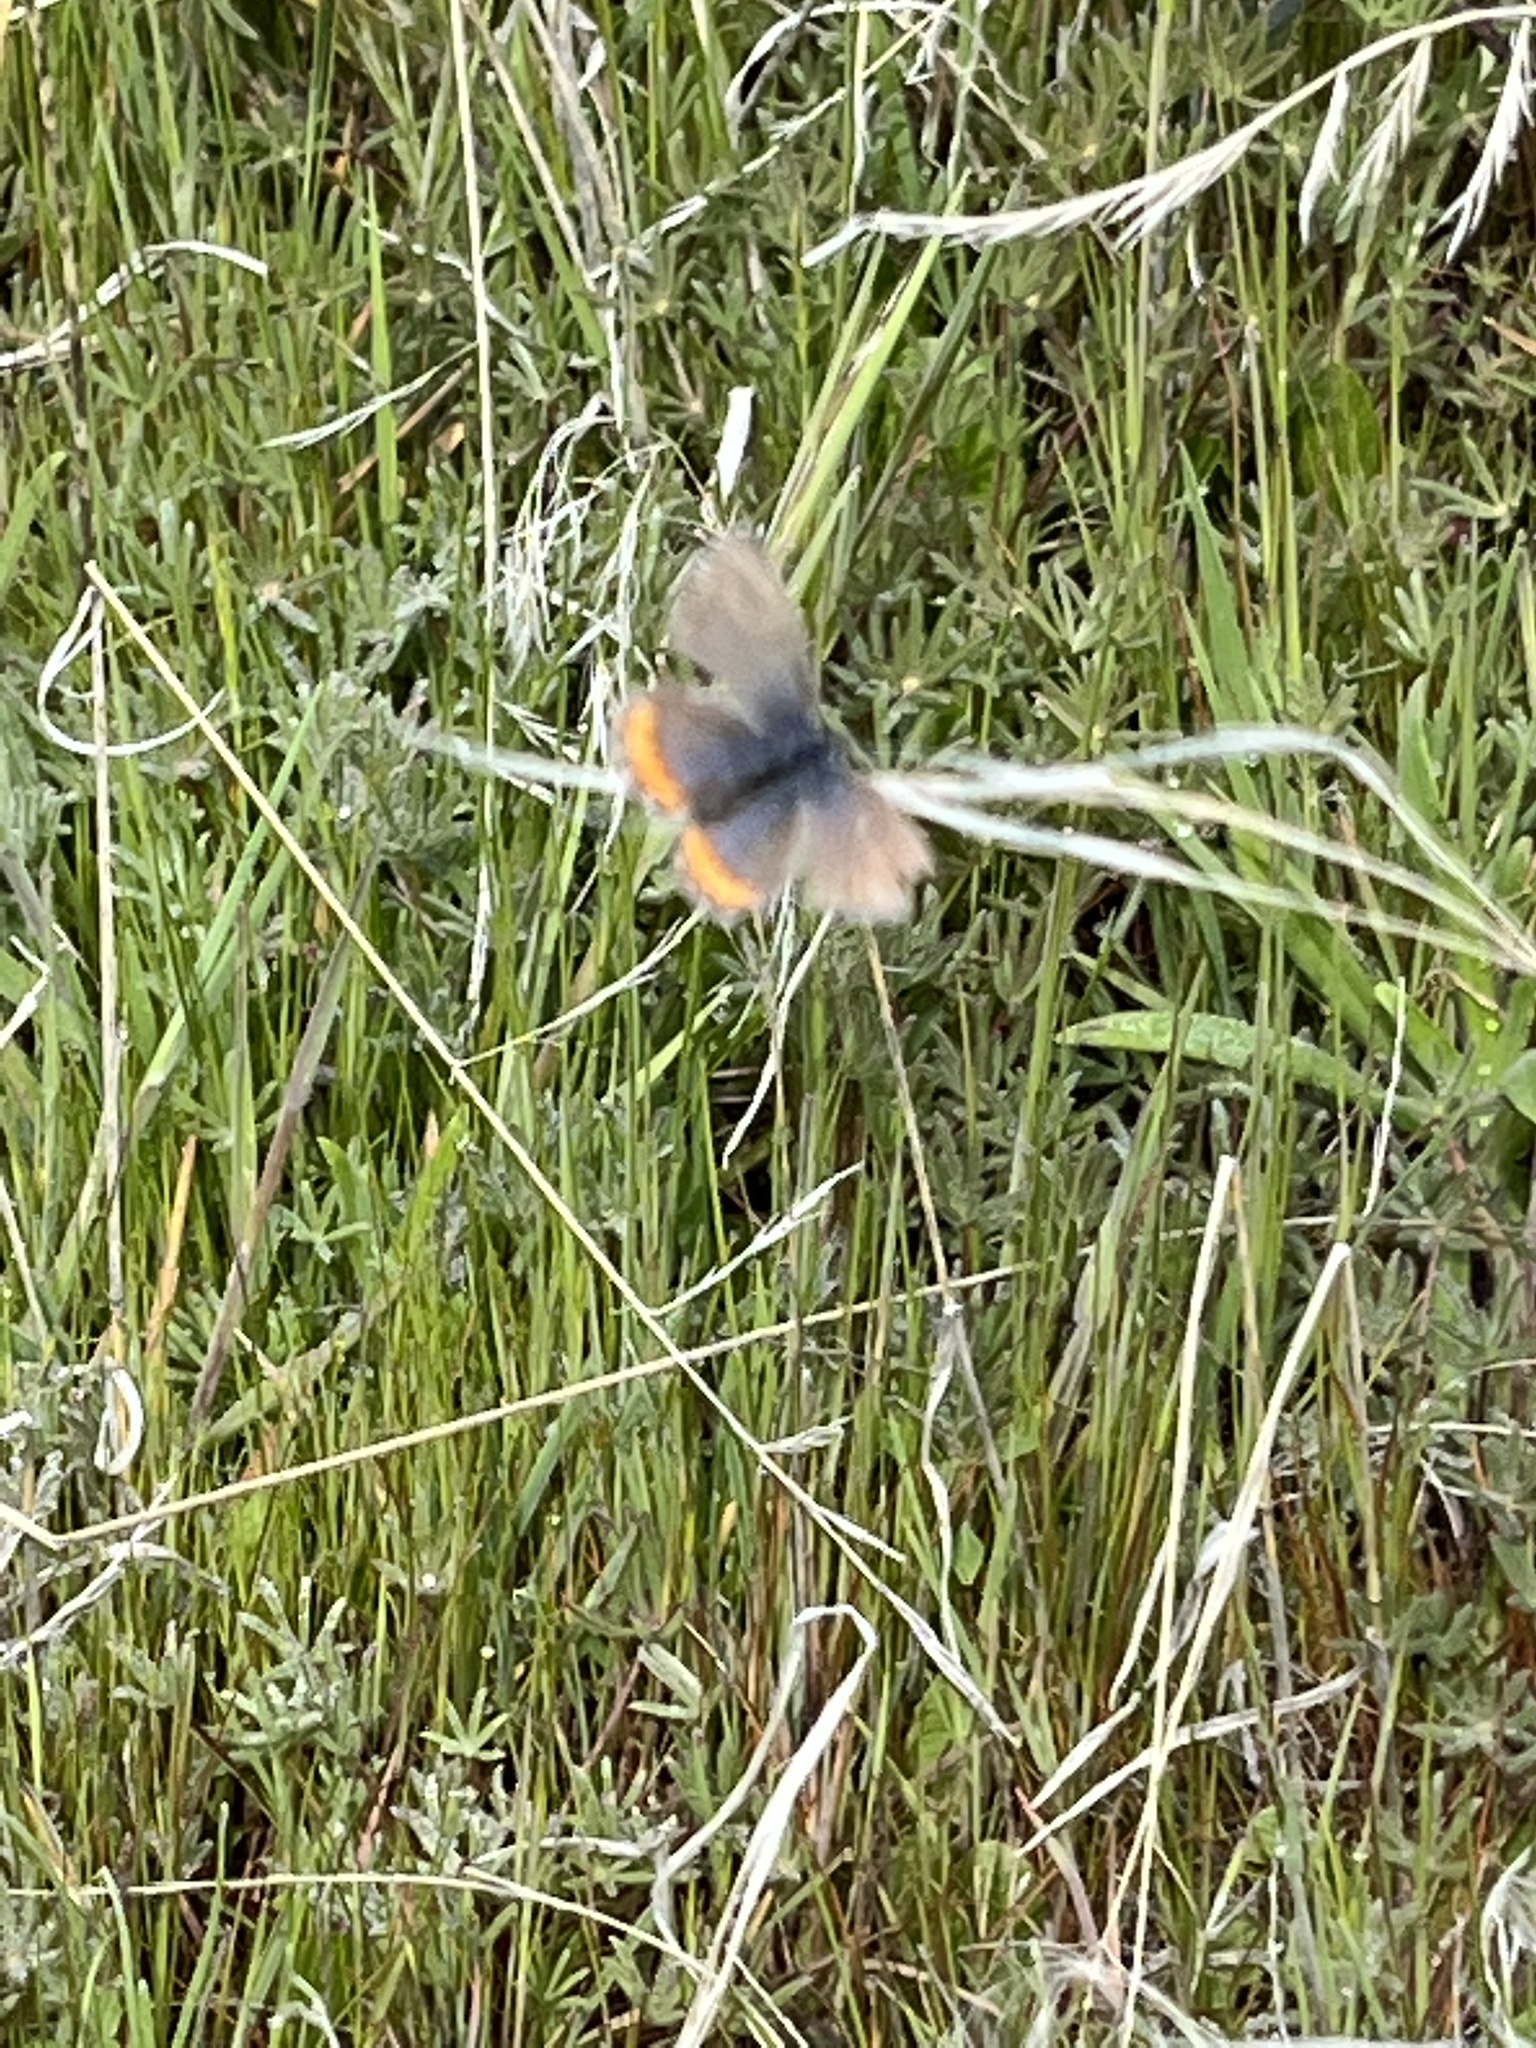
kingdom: Animalia
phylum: Arthropoda
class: Insecta
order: Lepidoptera
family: Lycaenidae
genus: Icaricia
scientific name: Icaricia acmon
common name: Acmon blue
